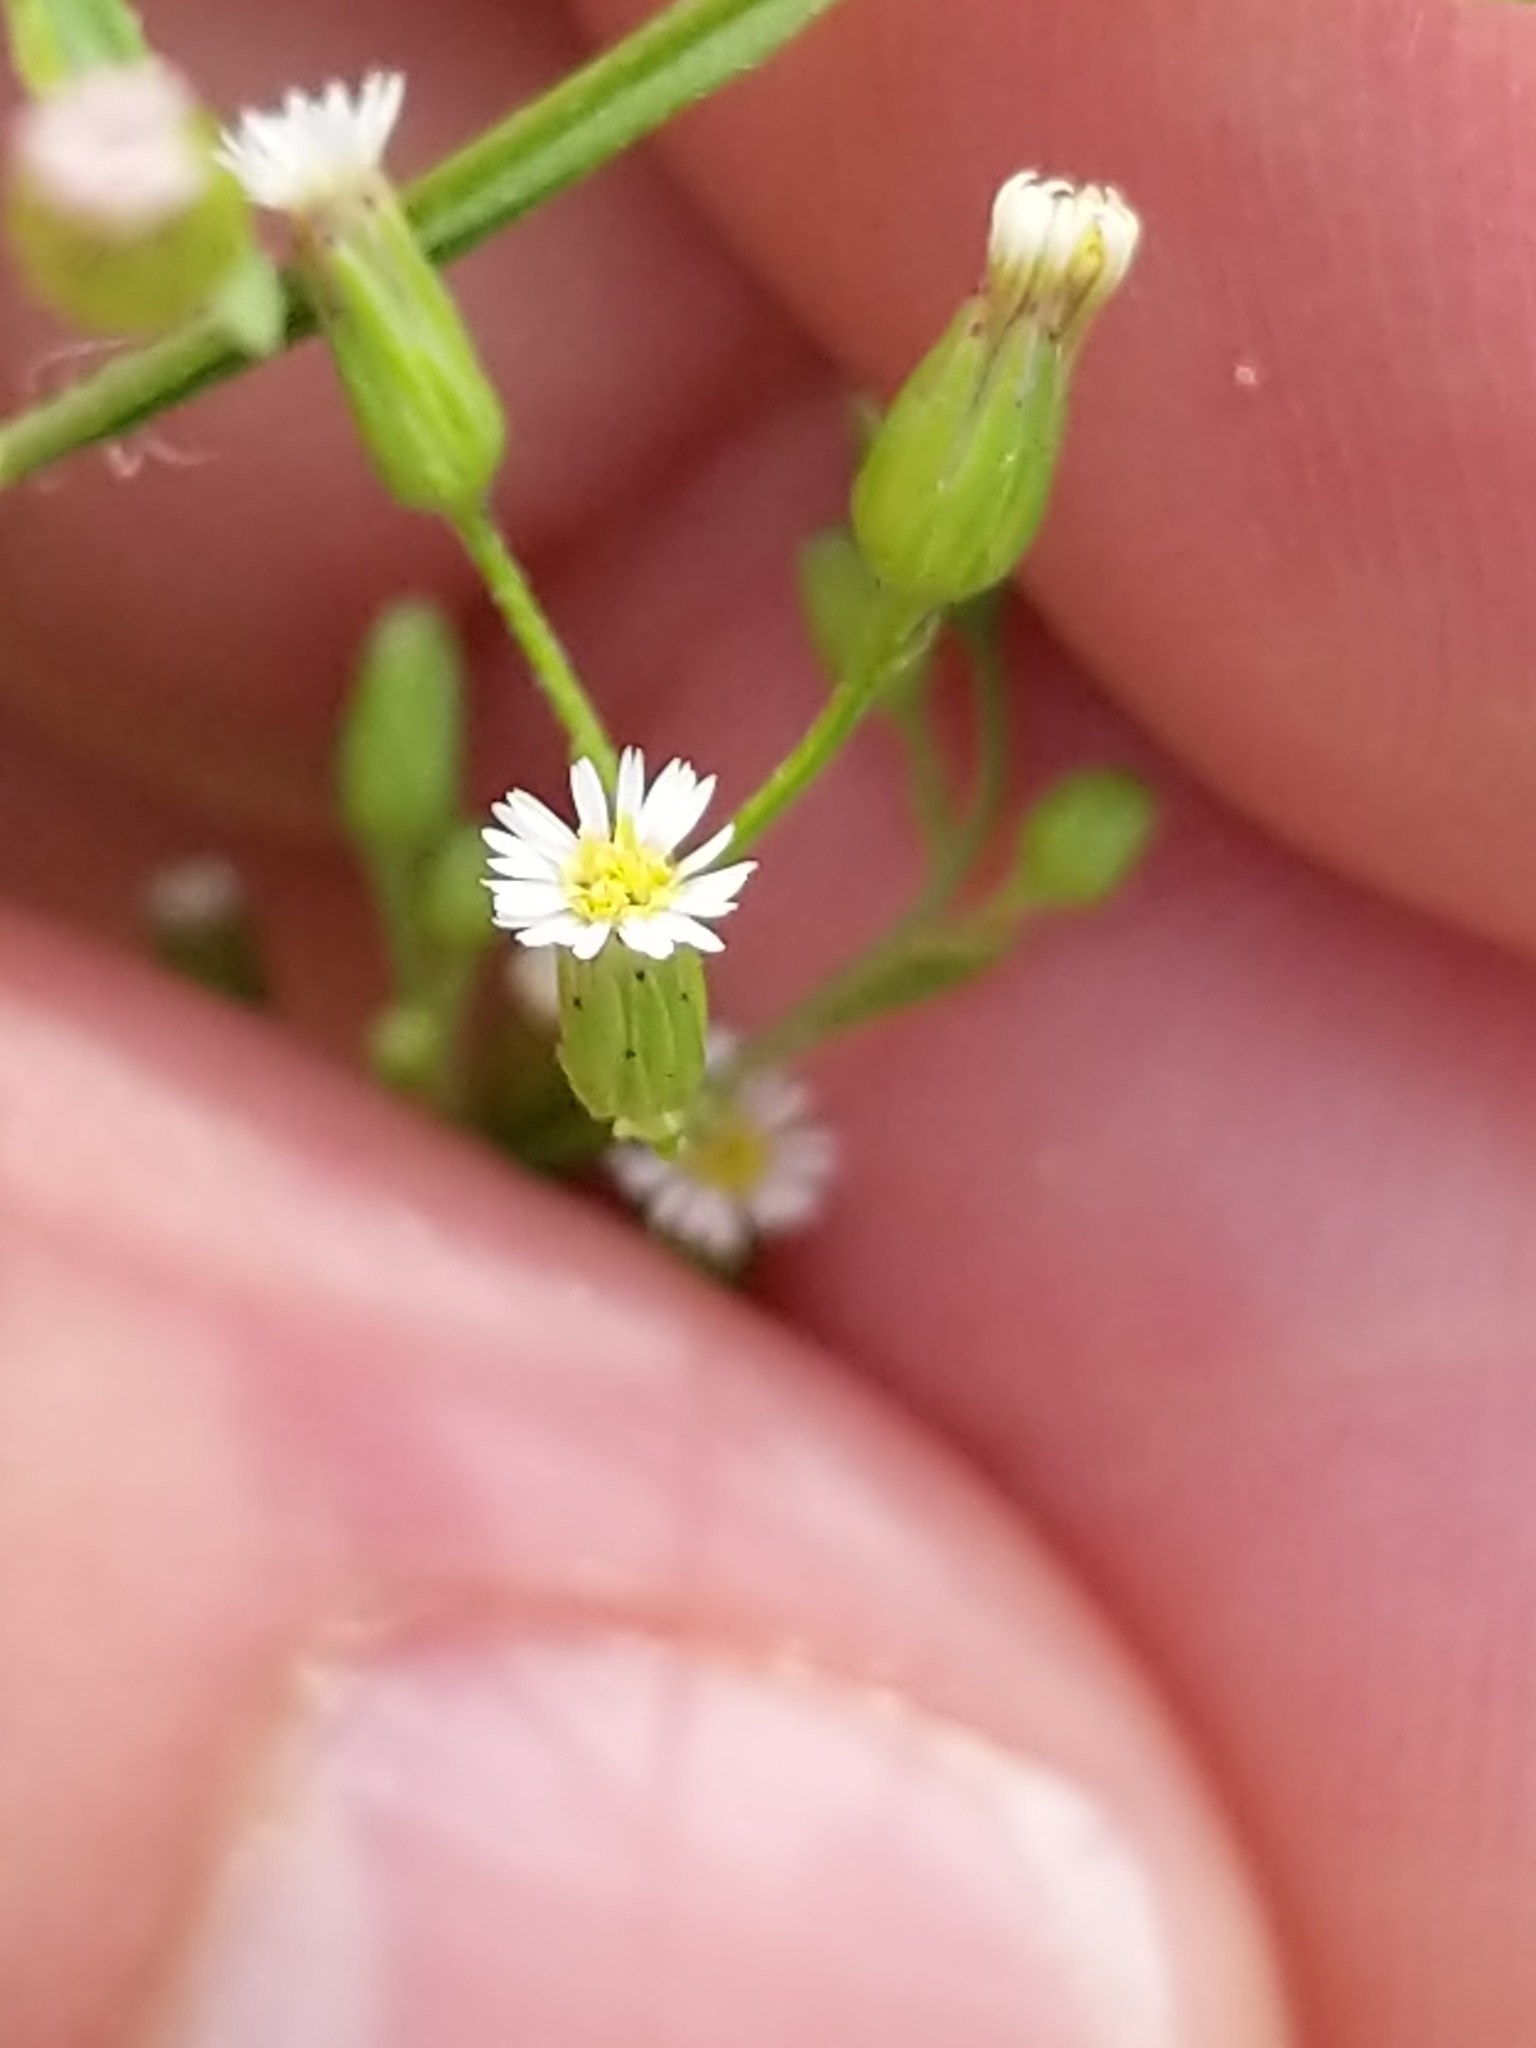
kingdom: Plantae
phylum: Tracheophyta
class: Magnoliopsida
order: Asterales
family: Asteraceae
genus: Erigeron
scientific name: Erigeron canadensis
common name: Canadian fleabane
